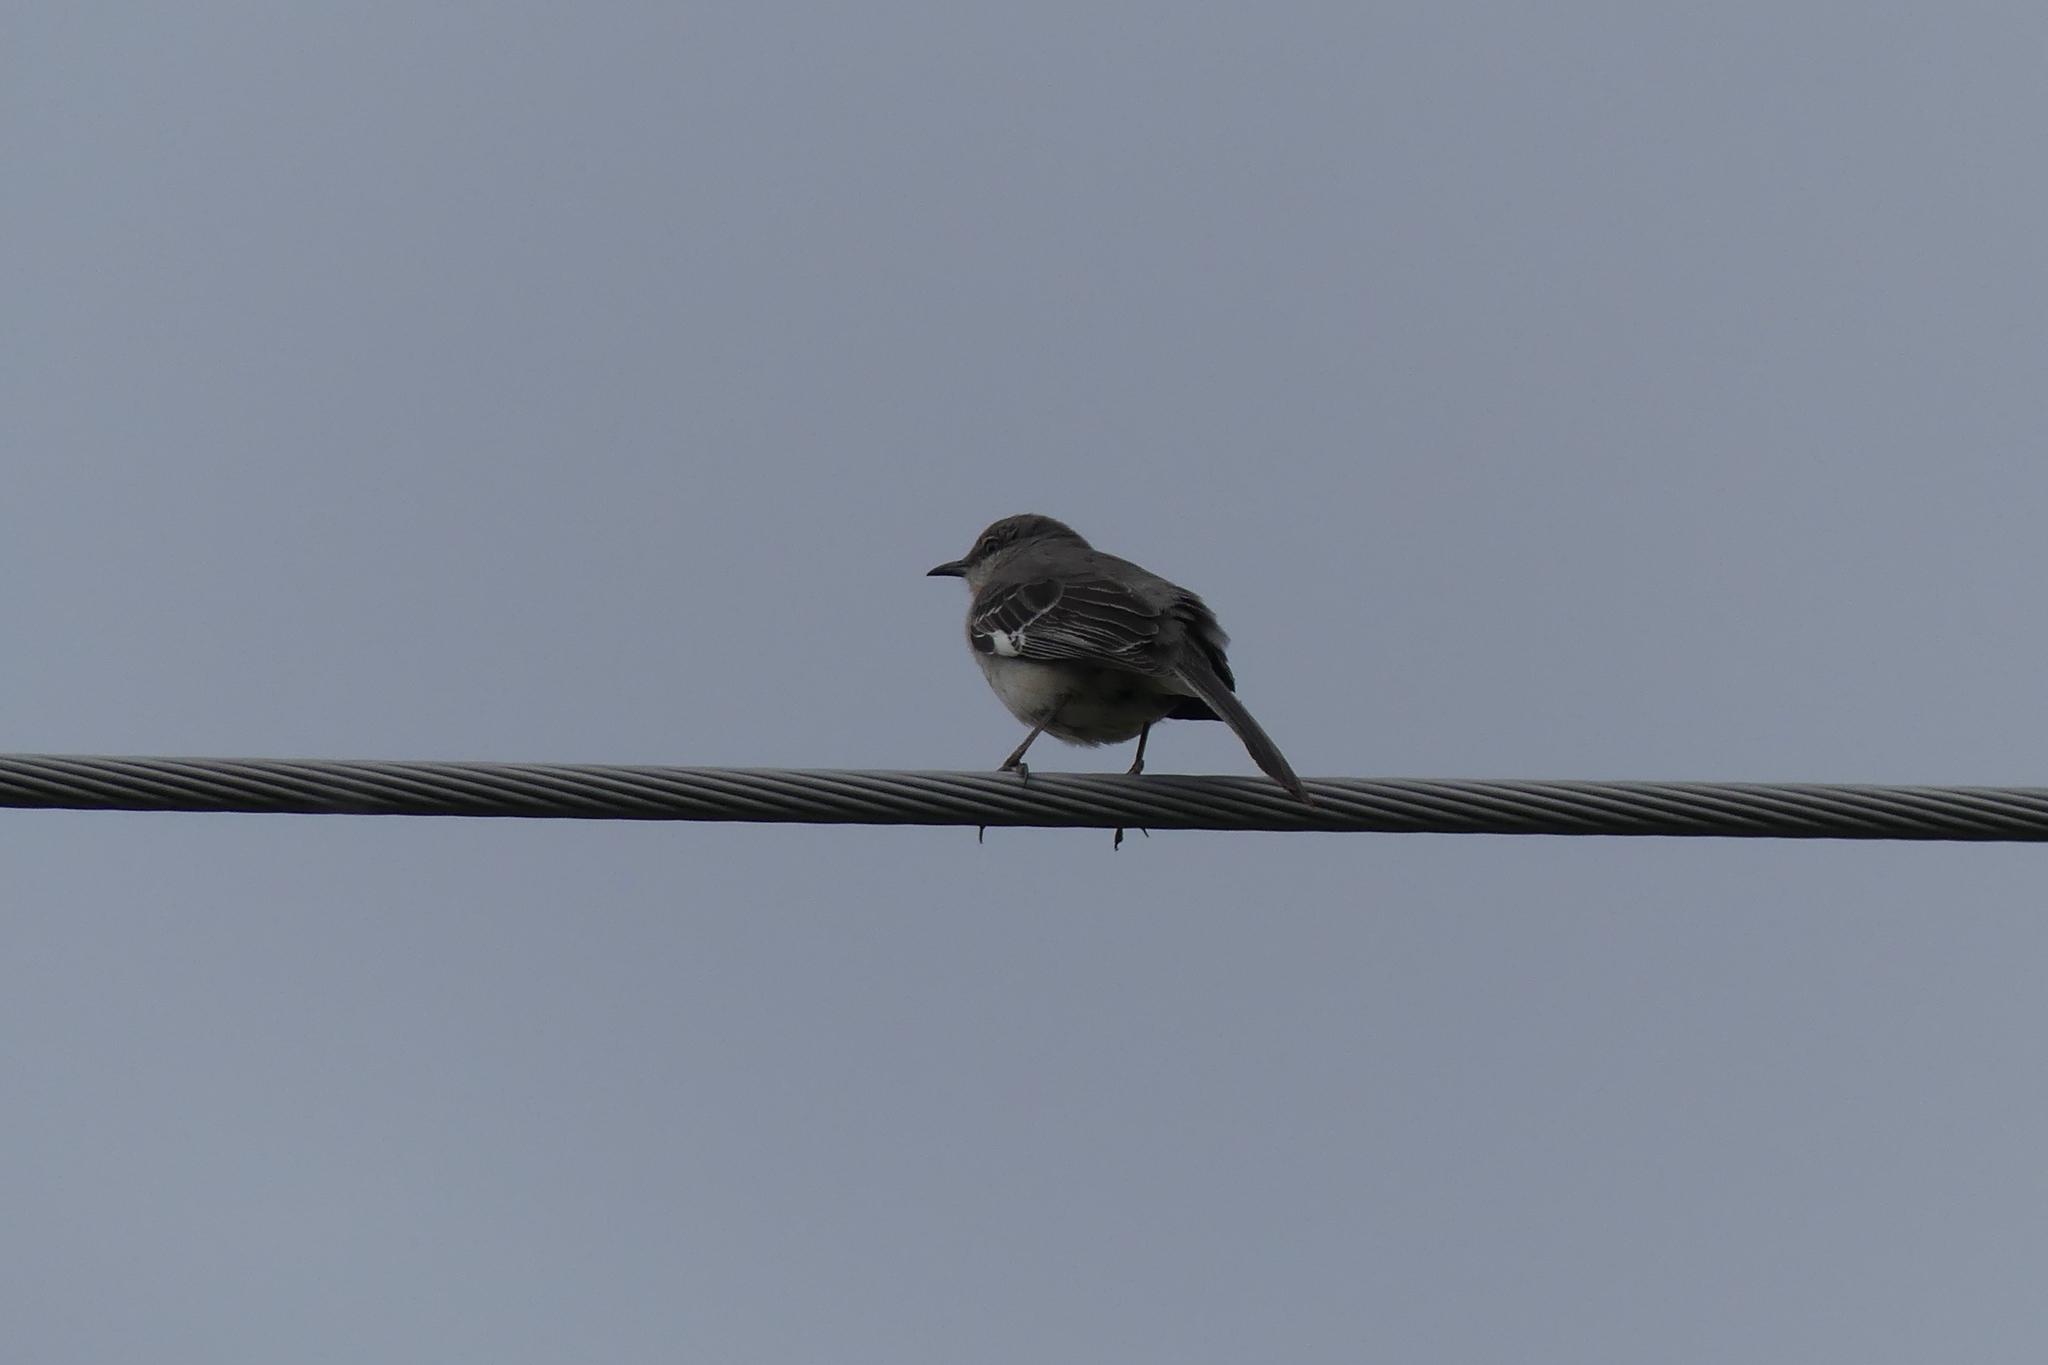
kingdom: Animalia
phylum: Chordata
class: Aves
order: Passeriformes
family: Mimidae
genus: Mimus
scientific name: Mimus polyglottos
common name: Northern mockingbird
